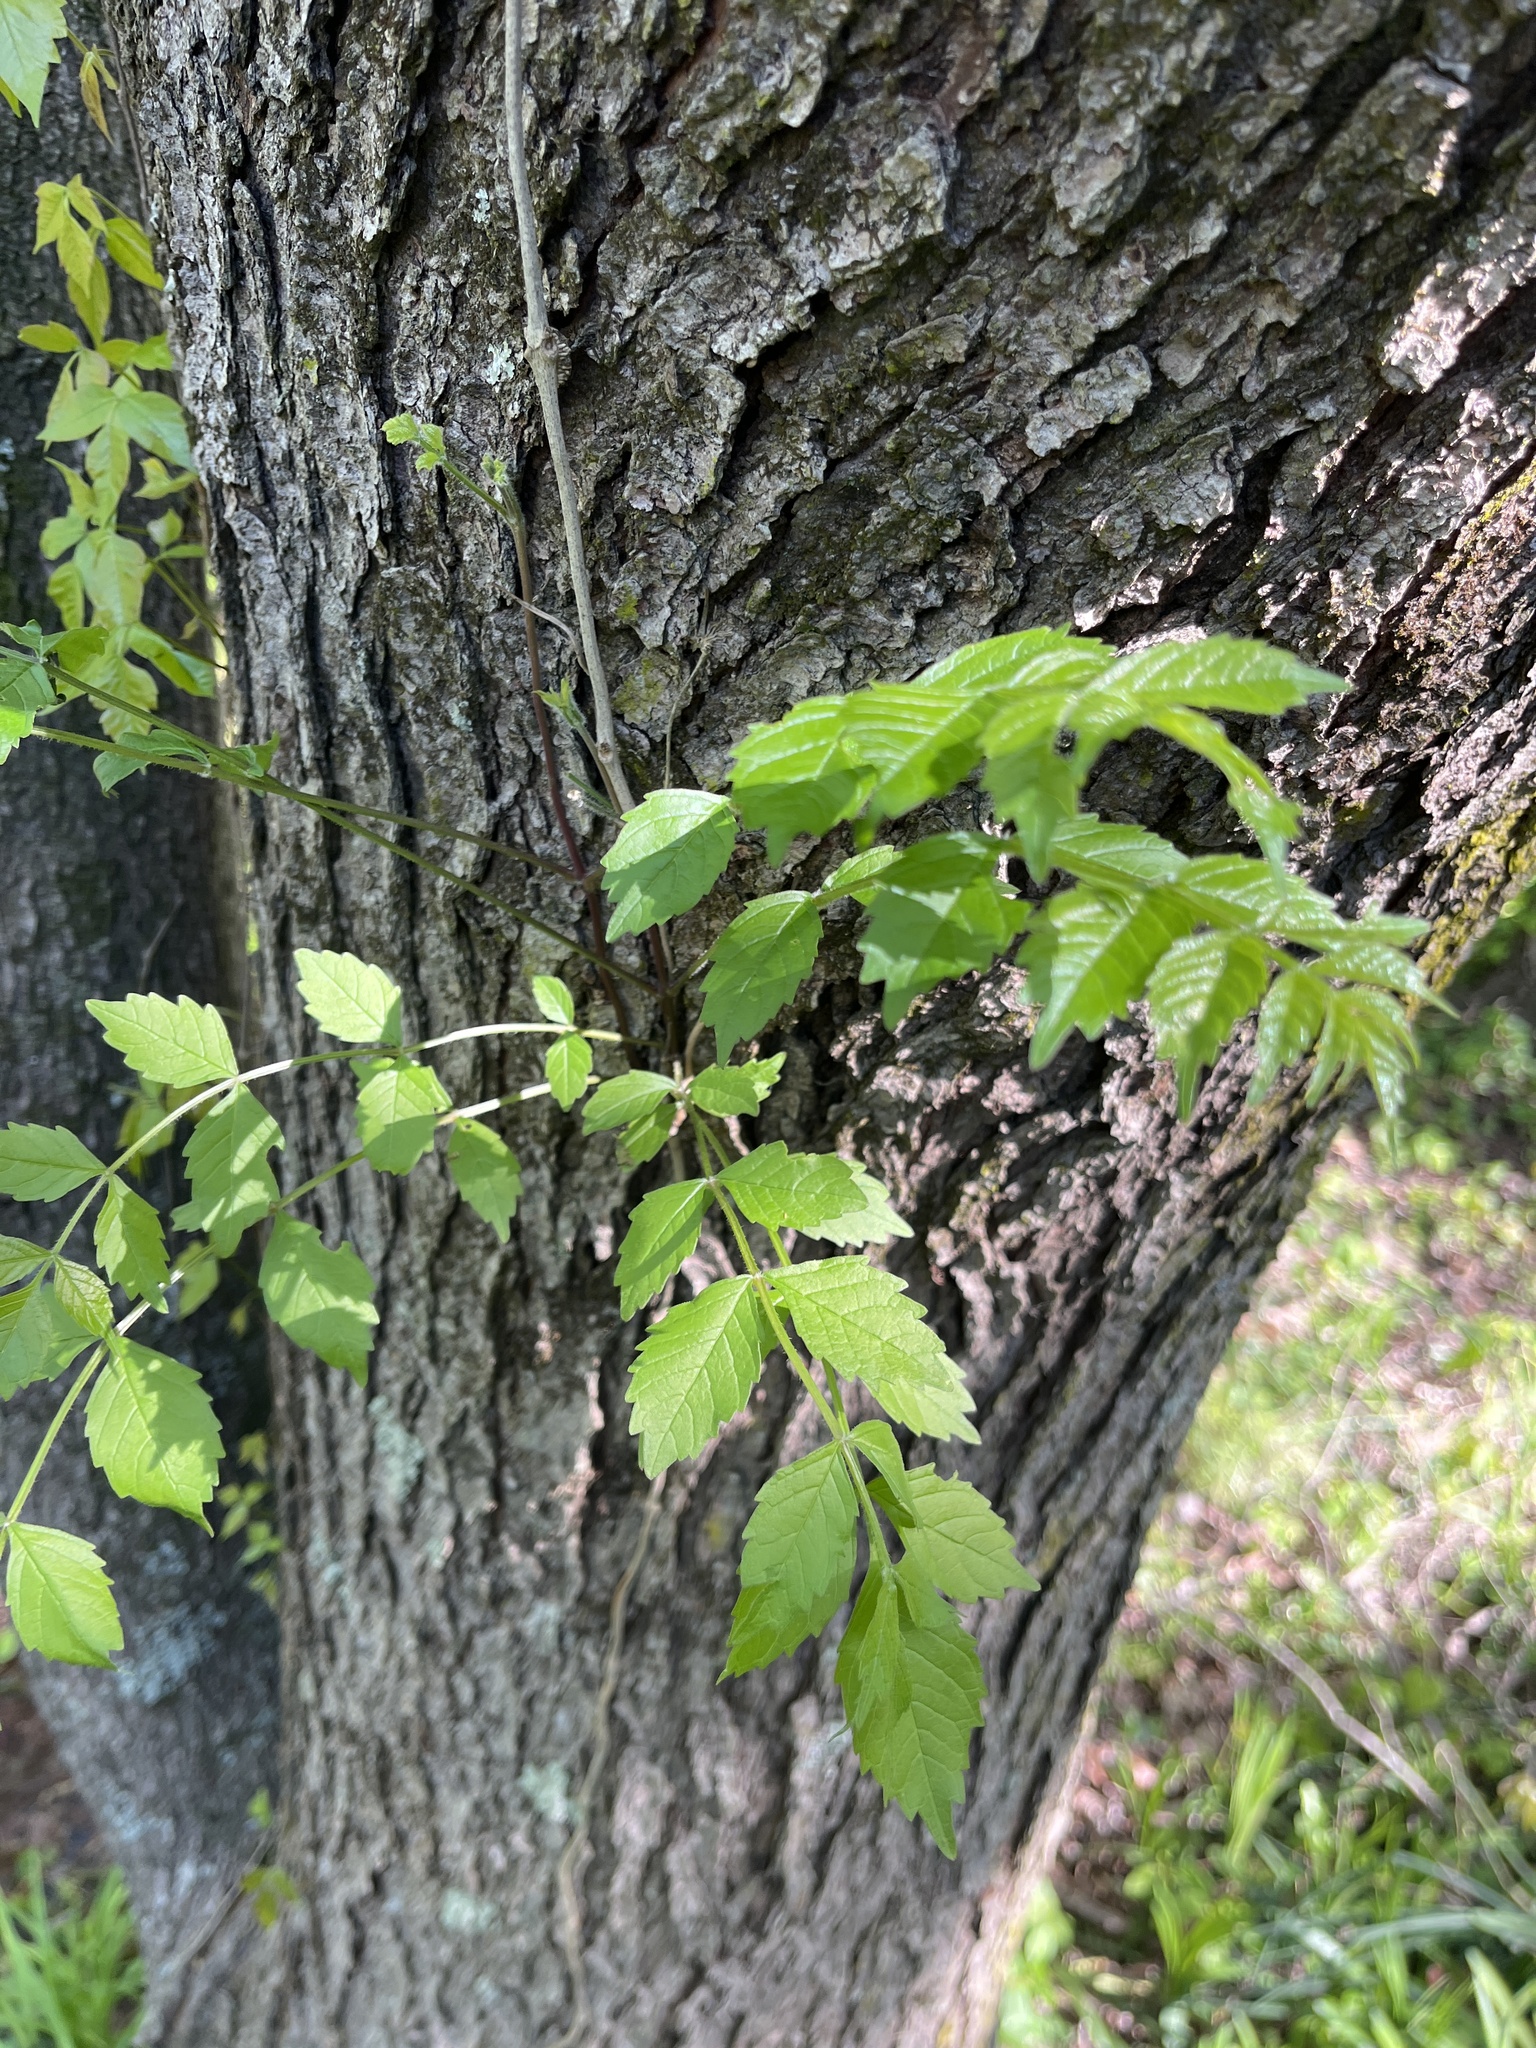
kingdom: Plantae
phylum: Tracheophyta
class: Magnoliopsida
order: Lamiales
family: Bignoniaceae
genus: Campsis
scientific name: Campsis radicans
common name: Trumpet-creeper
